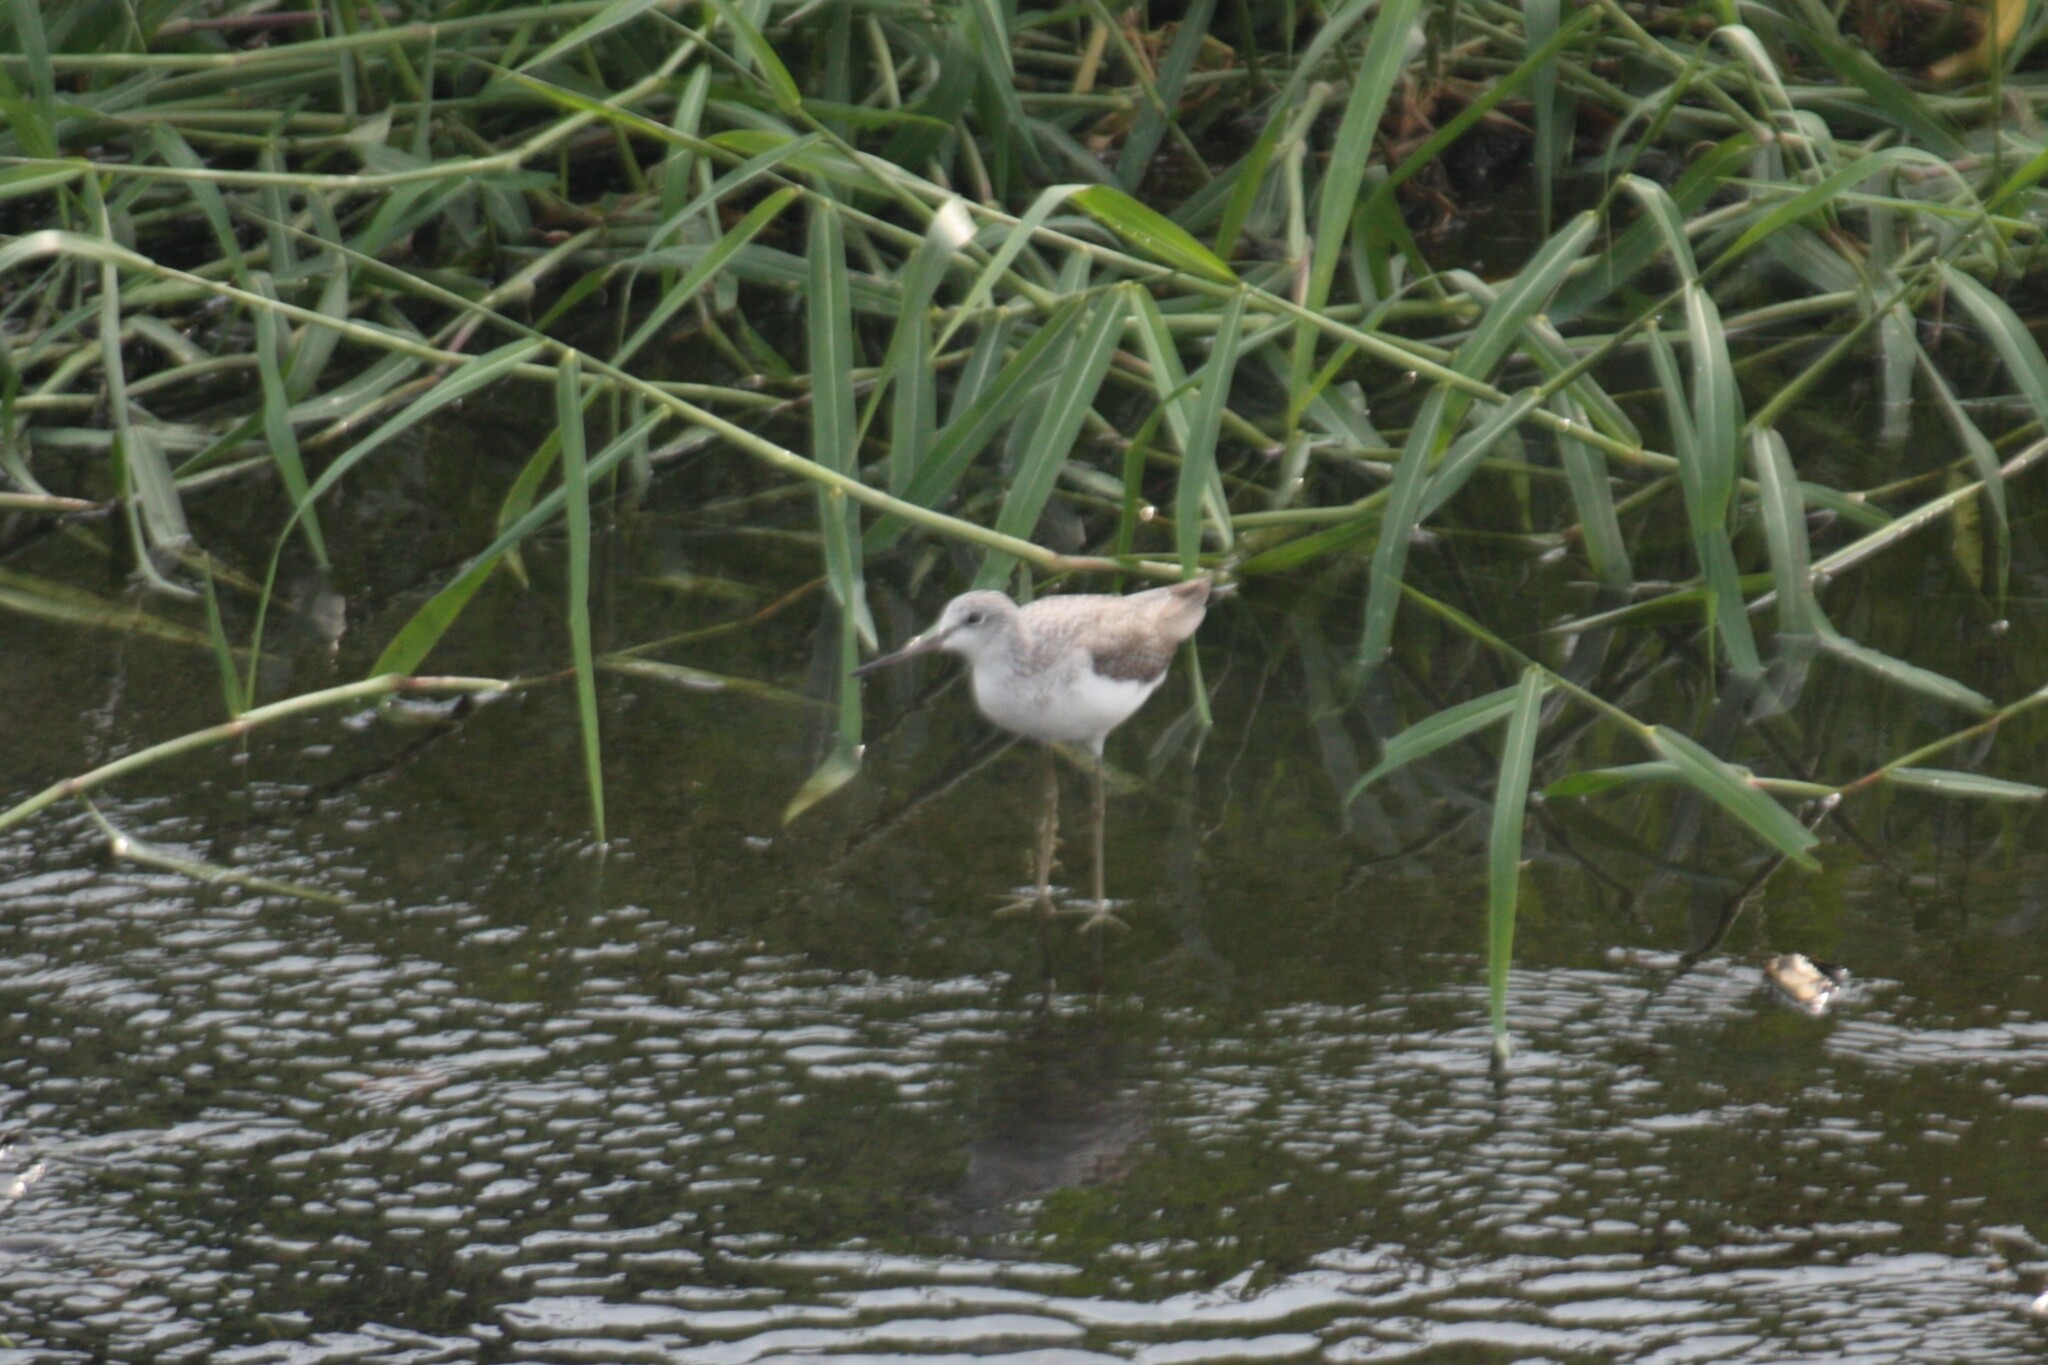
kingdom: Animalia
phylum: Chordata
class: Aves
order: Charadriiformes
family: Scolopacidae
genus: Tringa
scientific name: Tringa nebularia
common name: Common greenshank
